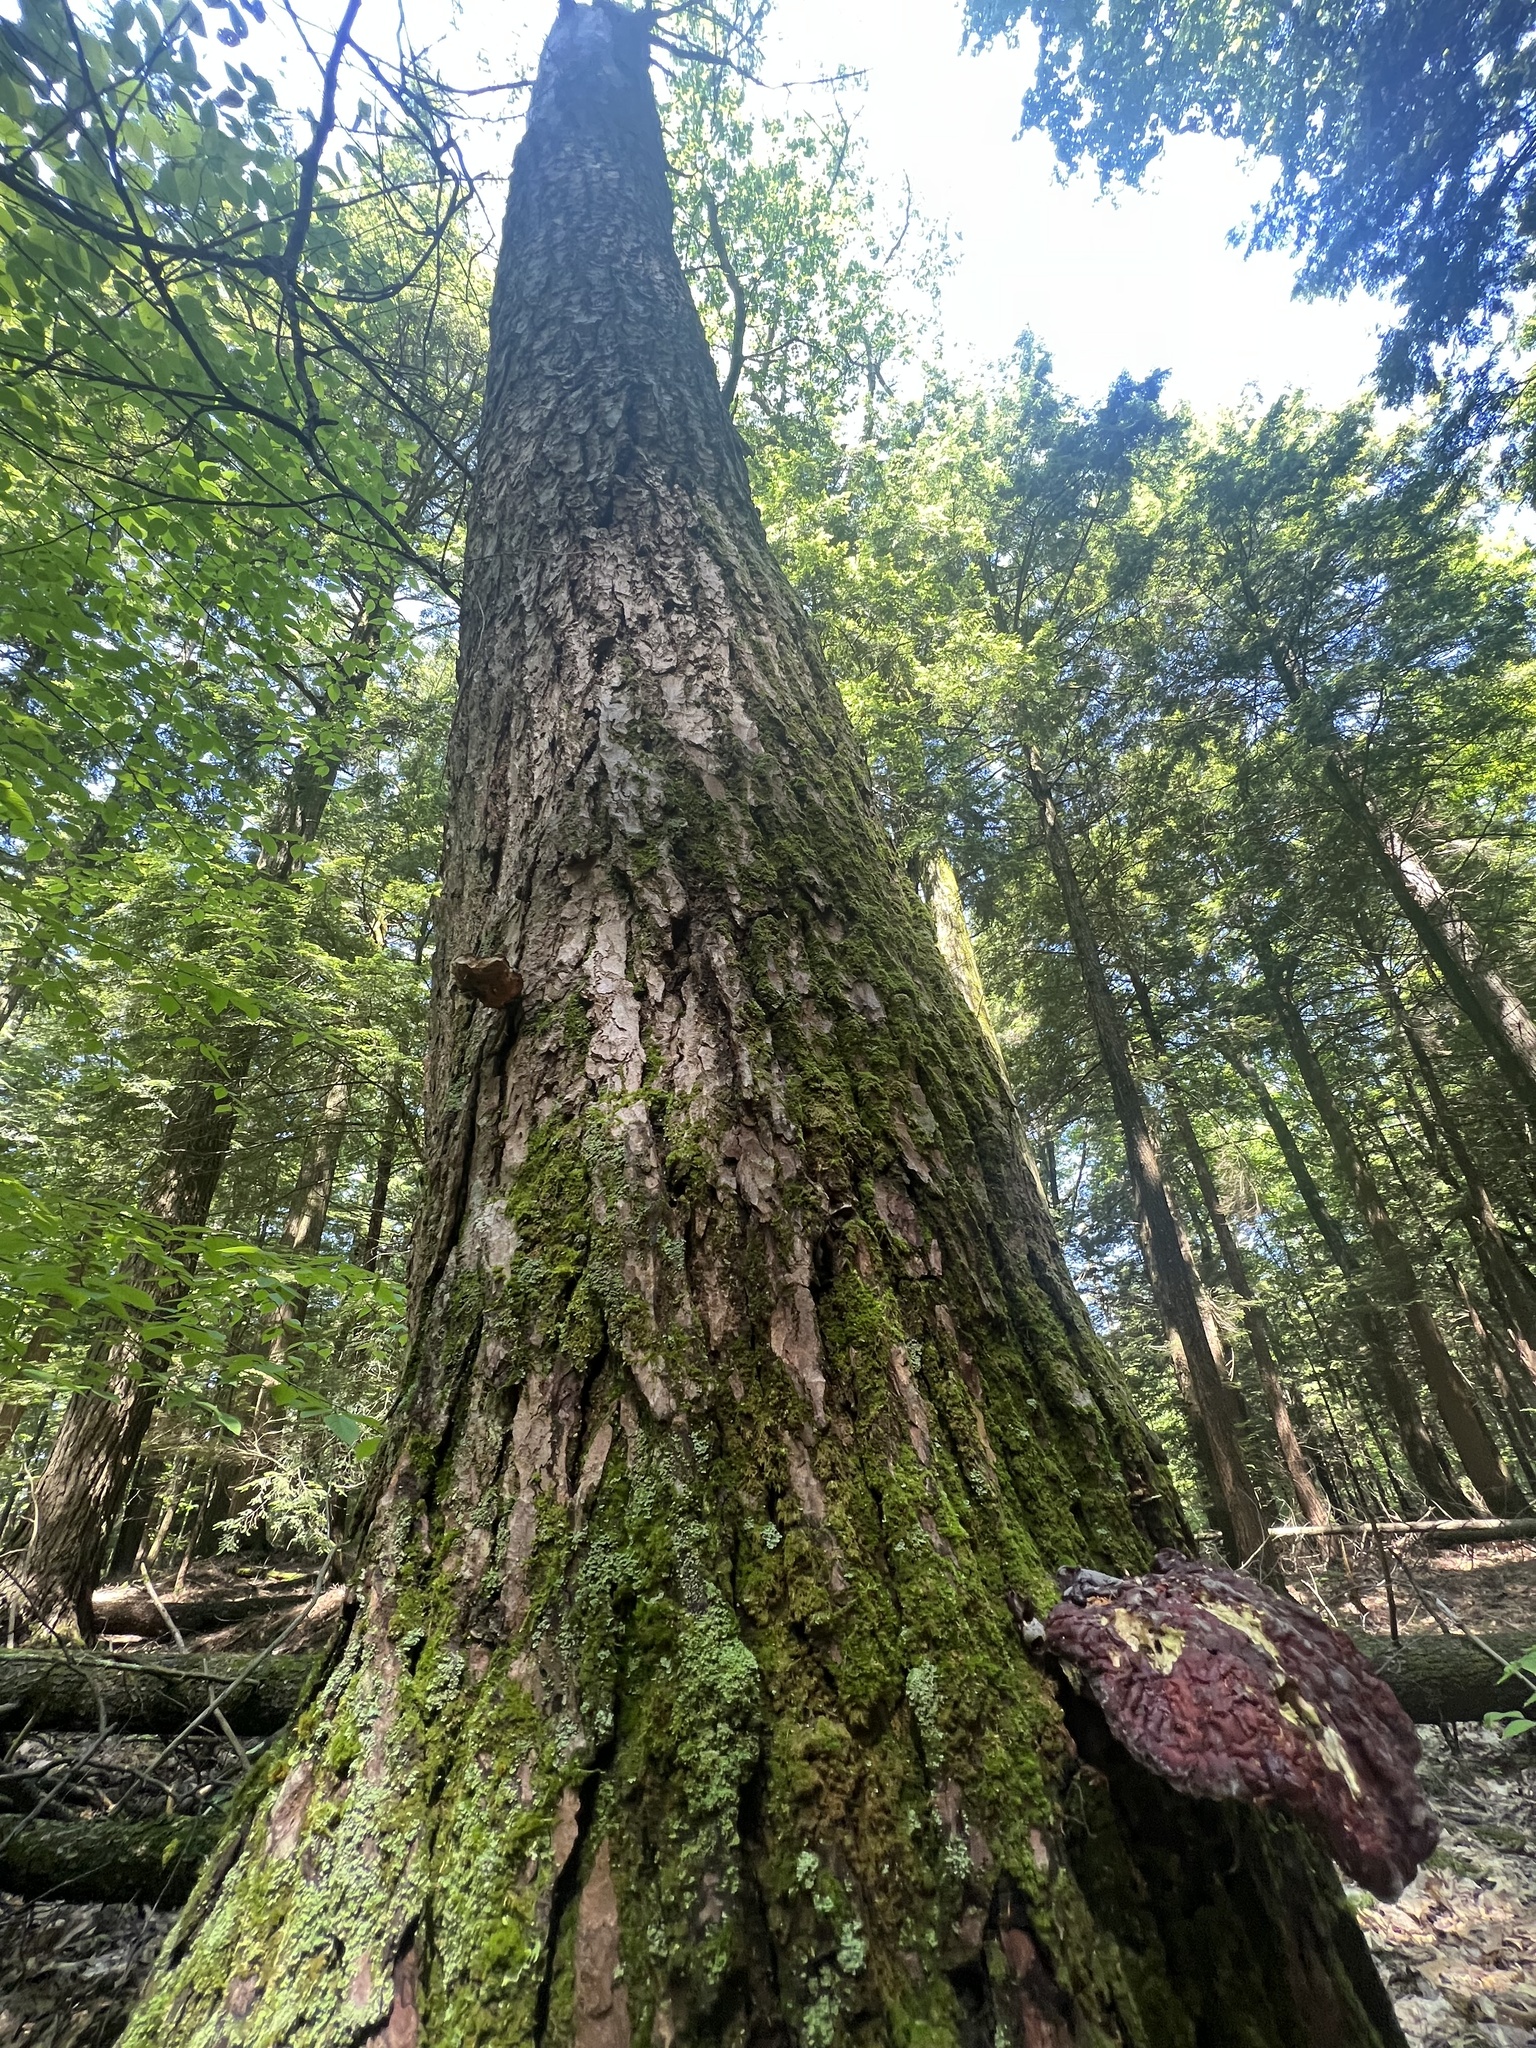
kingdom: Fungi
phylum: Basidiomycota
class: Agaricomycetes
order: Polyporales
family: Polyporaceae
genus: Ganoderma
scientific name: Ganoderma tsugae
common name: Hemlock varnish shelf
